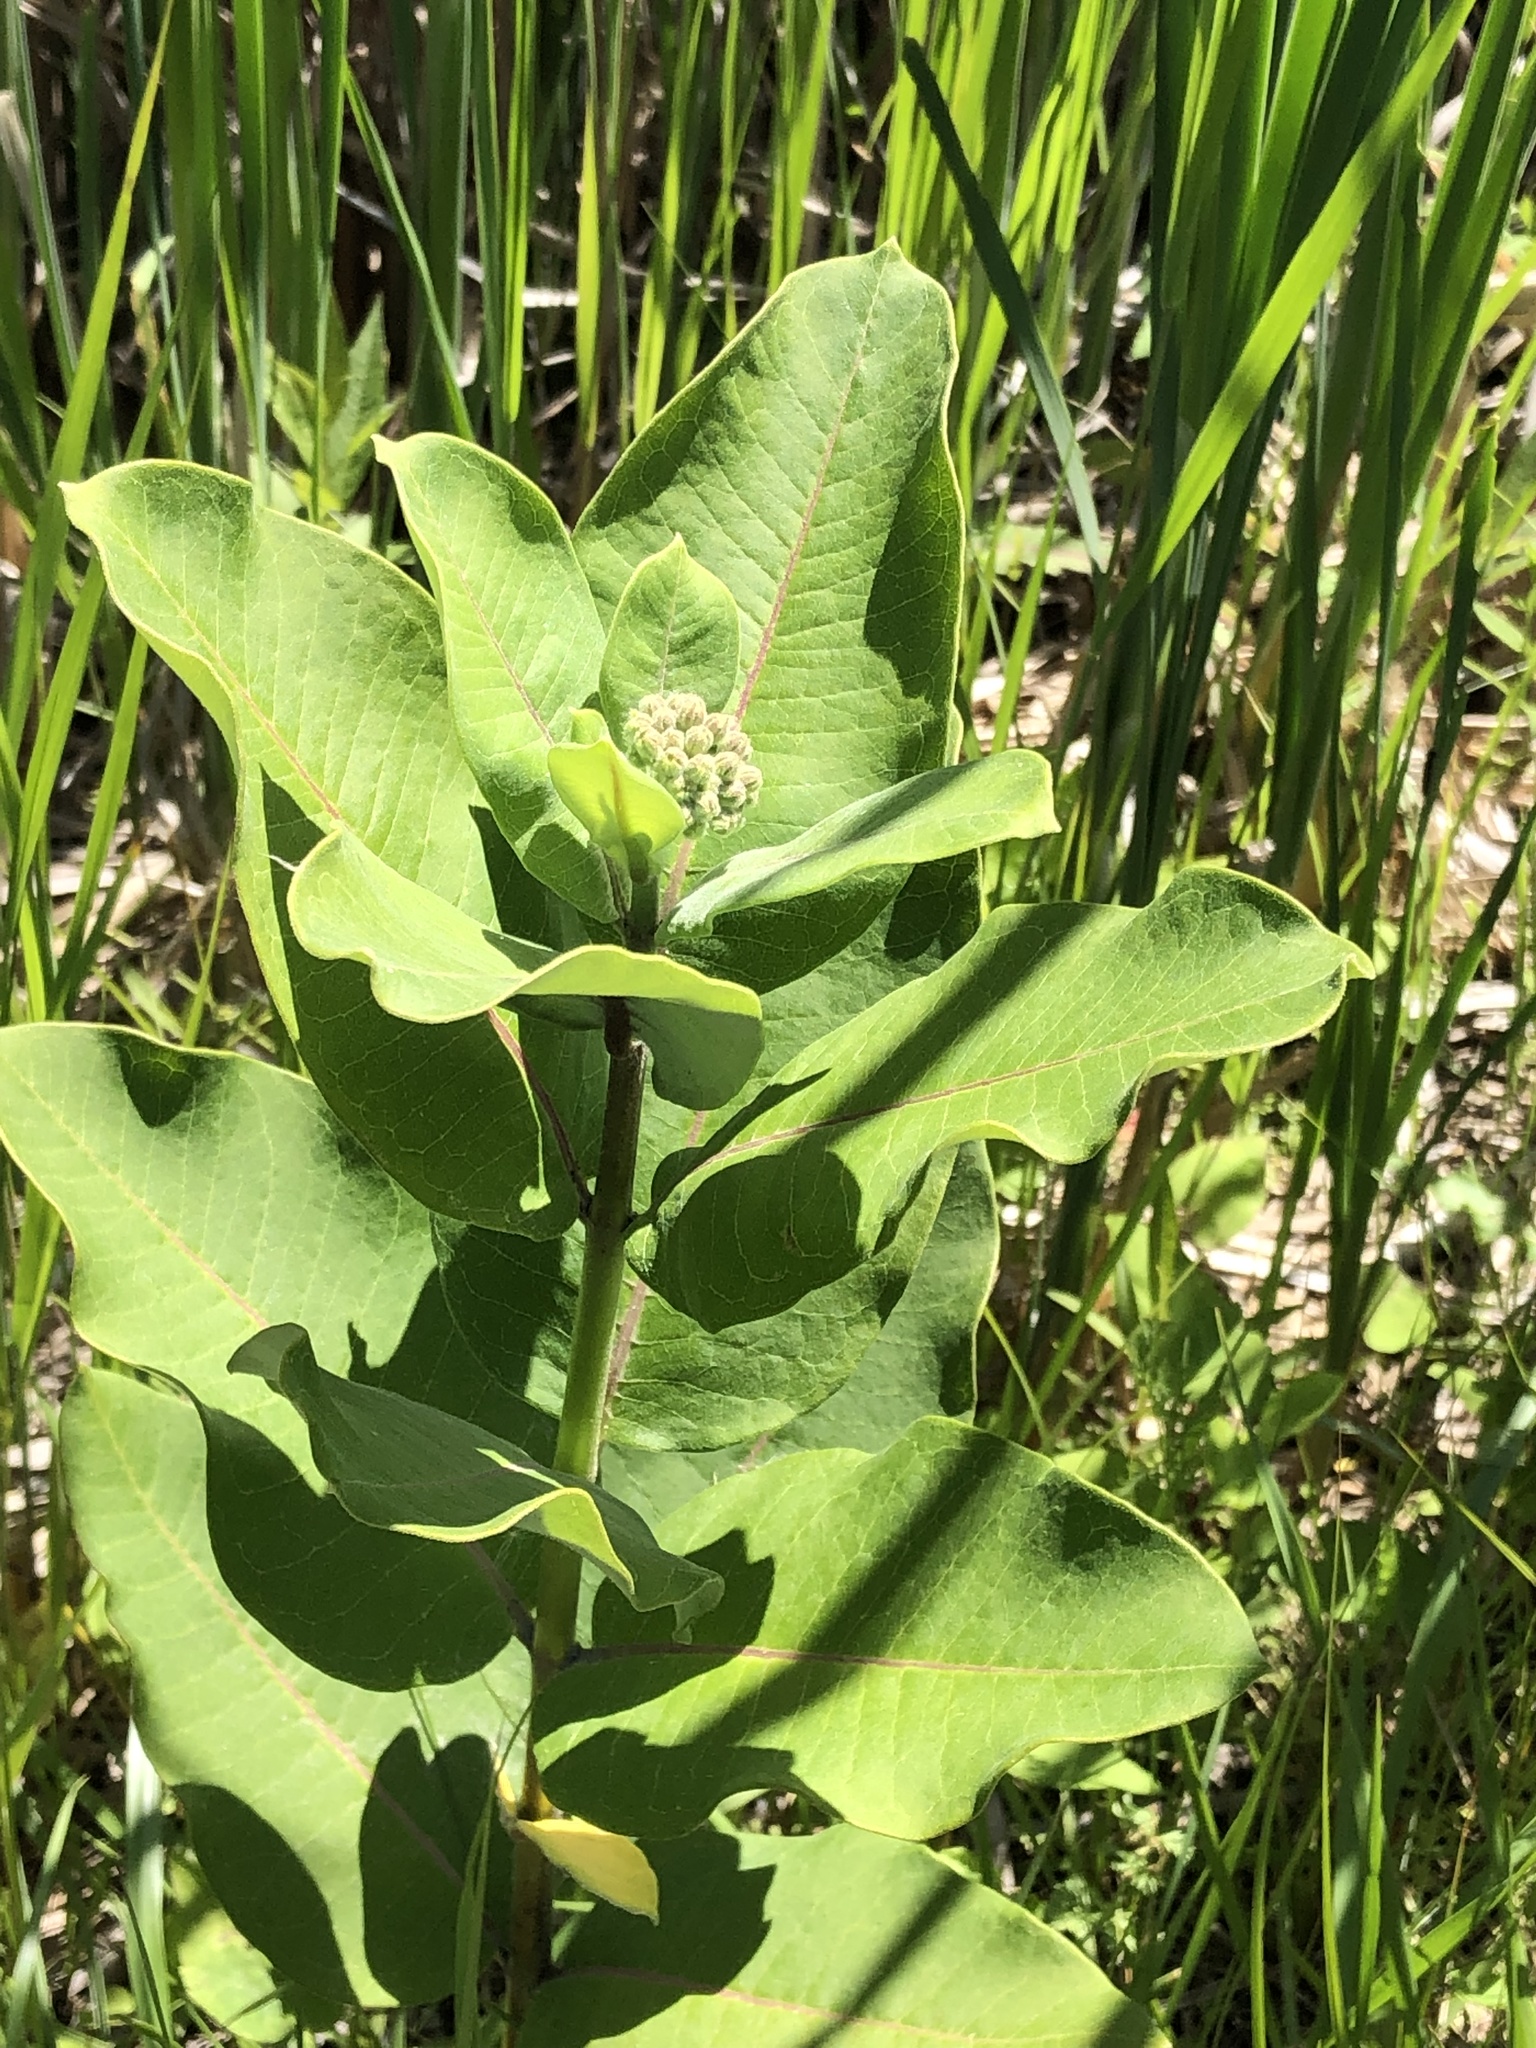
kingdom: Plantae
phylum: Tracheophyta
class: Magnoliopsida
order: Gentianales
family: Apocynaceae
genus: Asclepias
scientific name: Asclepias syriaca
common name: Common milkweed
